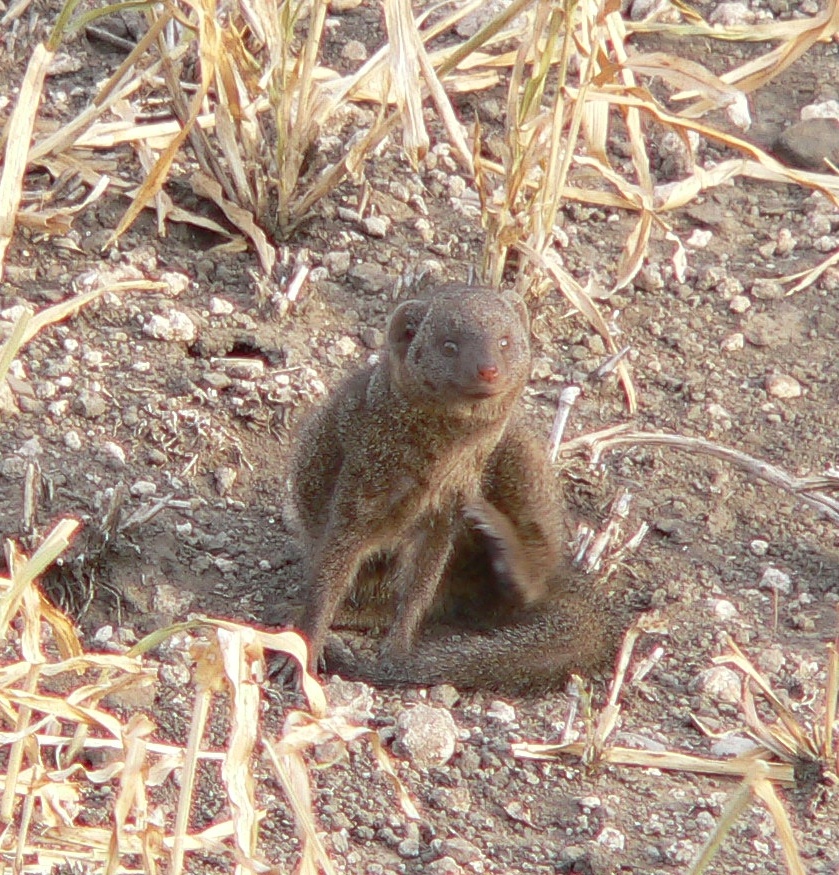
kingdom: Animalia
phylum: Chordata
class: Mammalia
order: Carnivora
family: Herpestidae
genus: Helogale
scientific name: Helogale parvula
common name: Common dwarf mongoose
